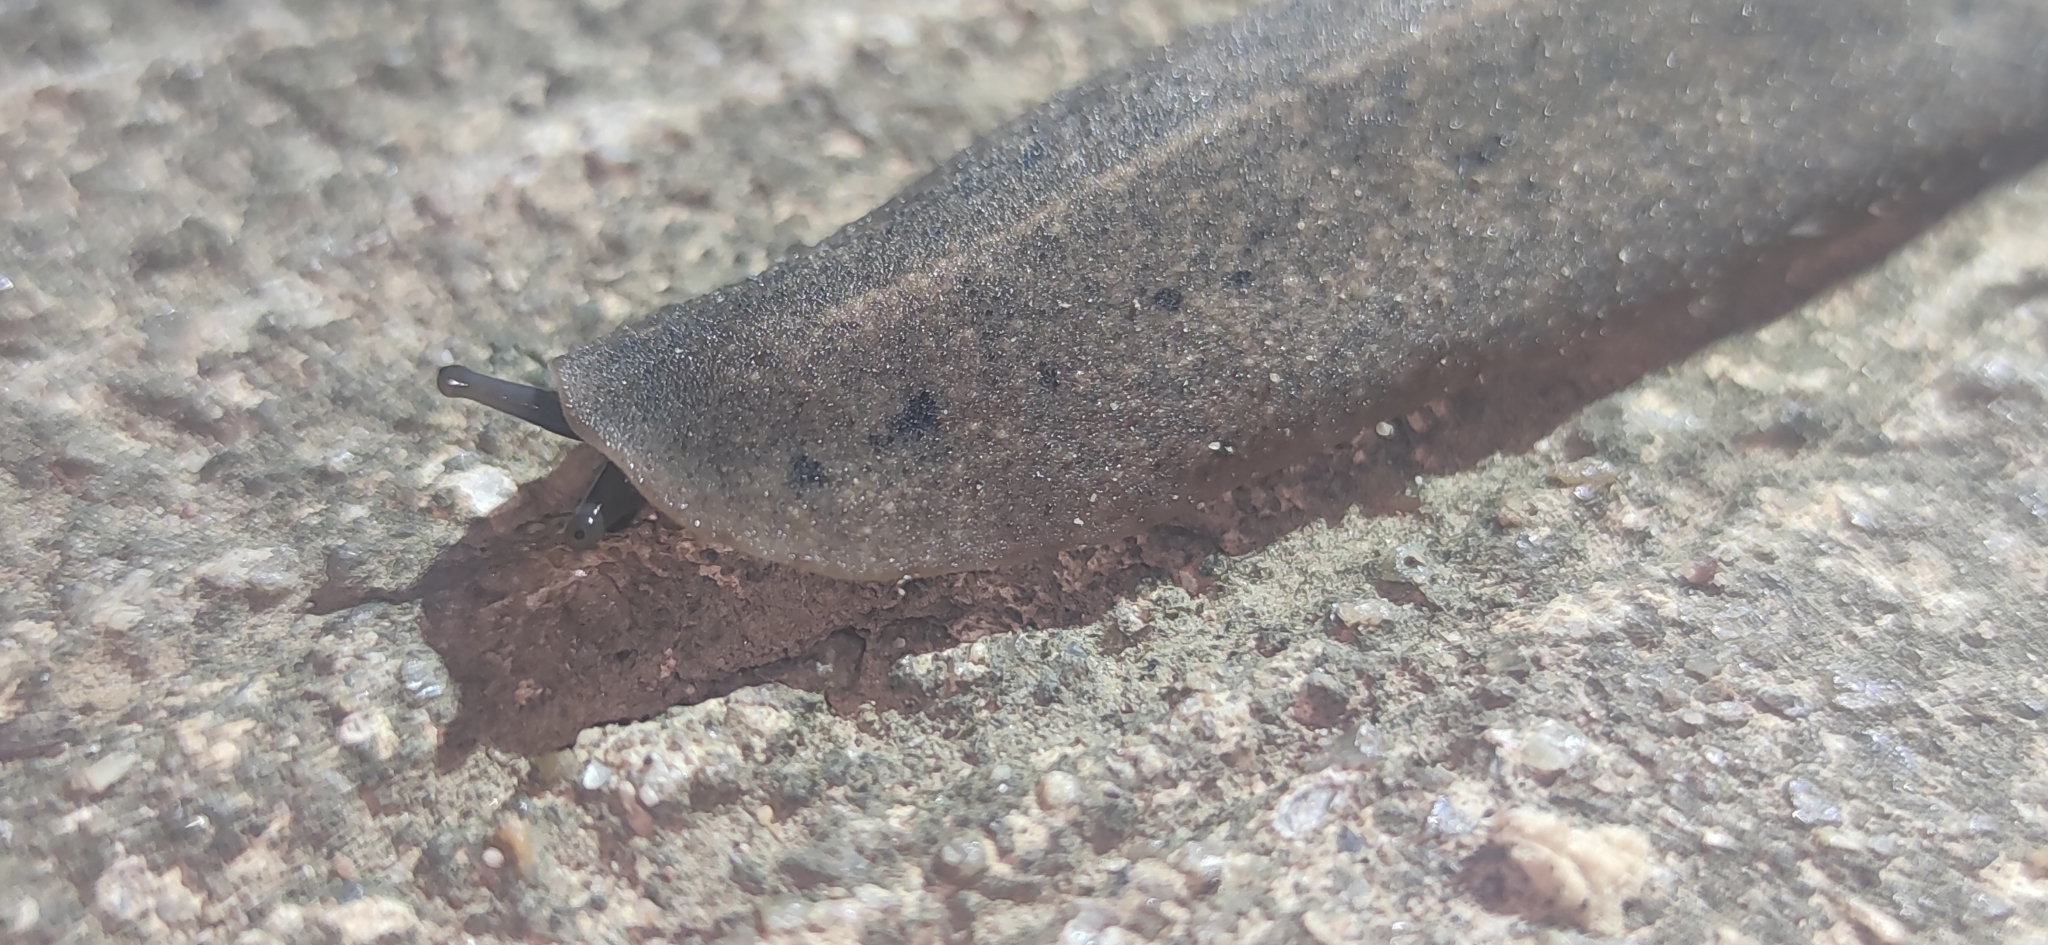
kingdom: Animalia
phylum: Mollusca
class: Gastropoda
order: Systellommatophora
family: Veronicellidae
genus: Valiguna
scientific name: Valiguna siamensis
